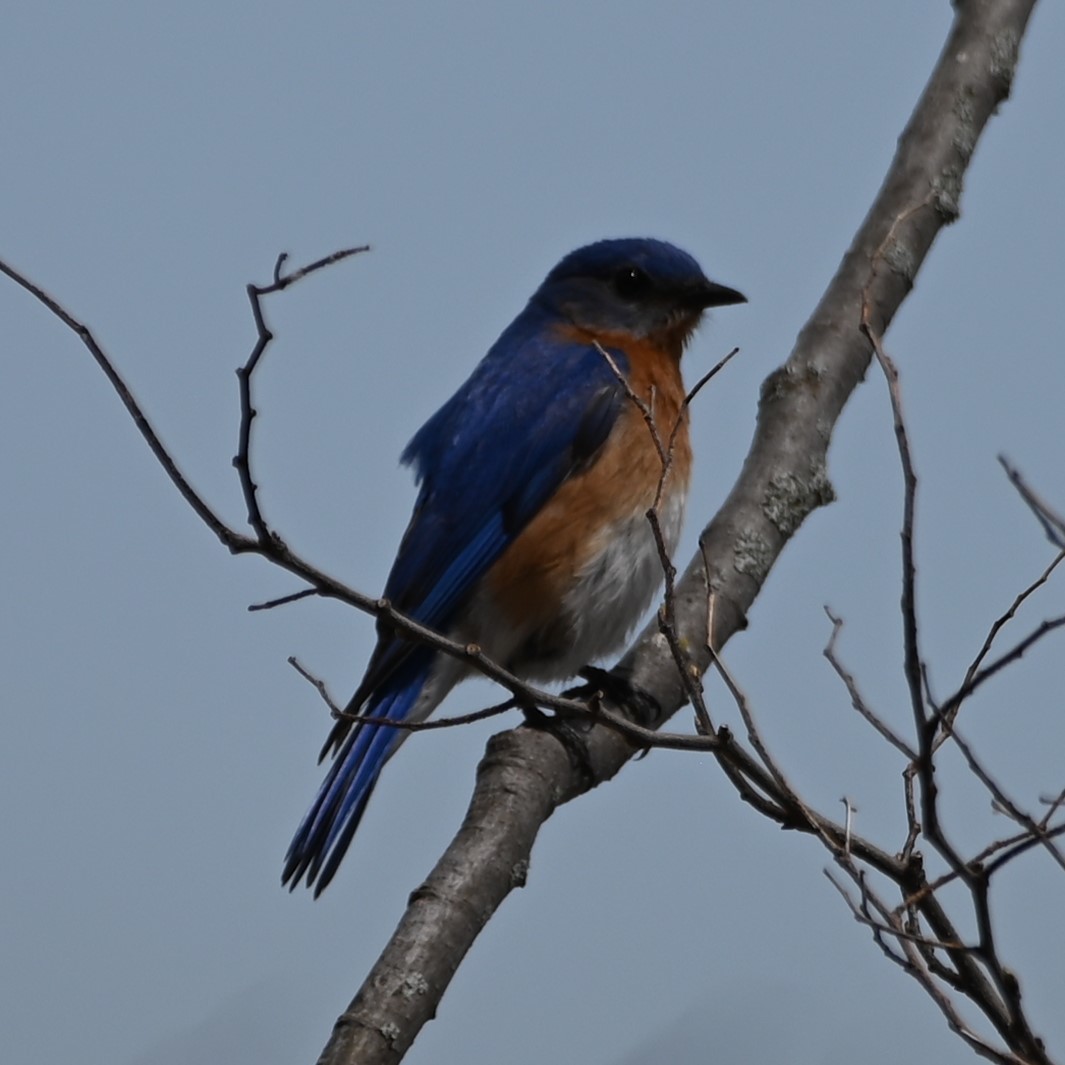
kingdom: Animalia
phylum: Chordata
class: Aves
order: Passeriformes
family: Turdidae
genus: Sialia
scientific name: Sialia sialis
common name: Eastern bluebird
